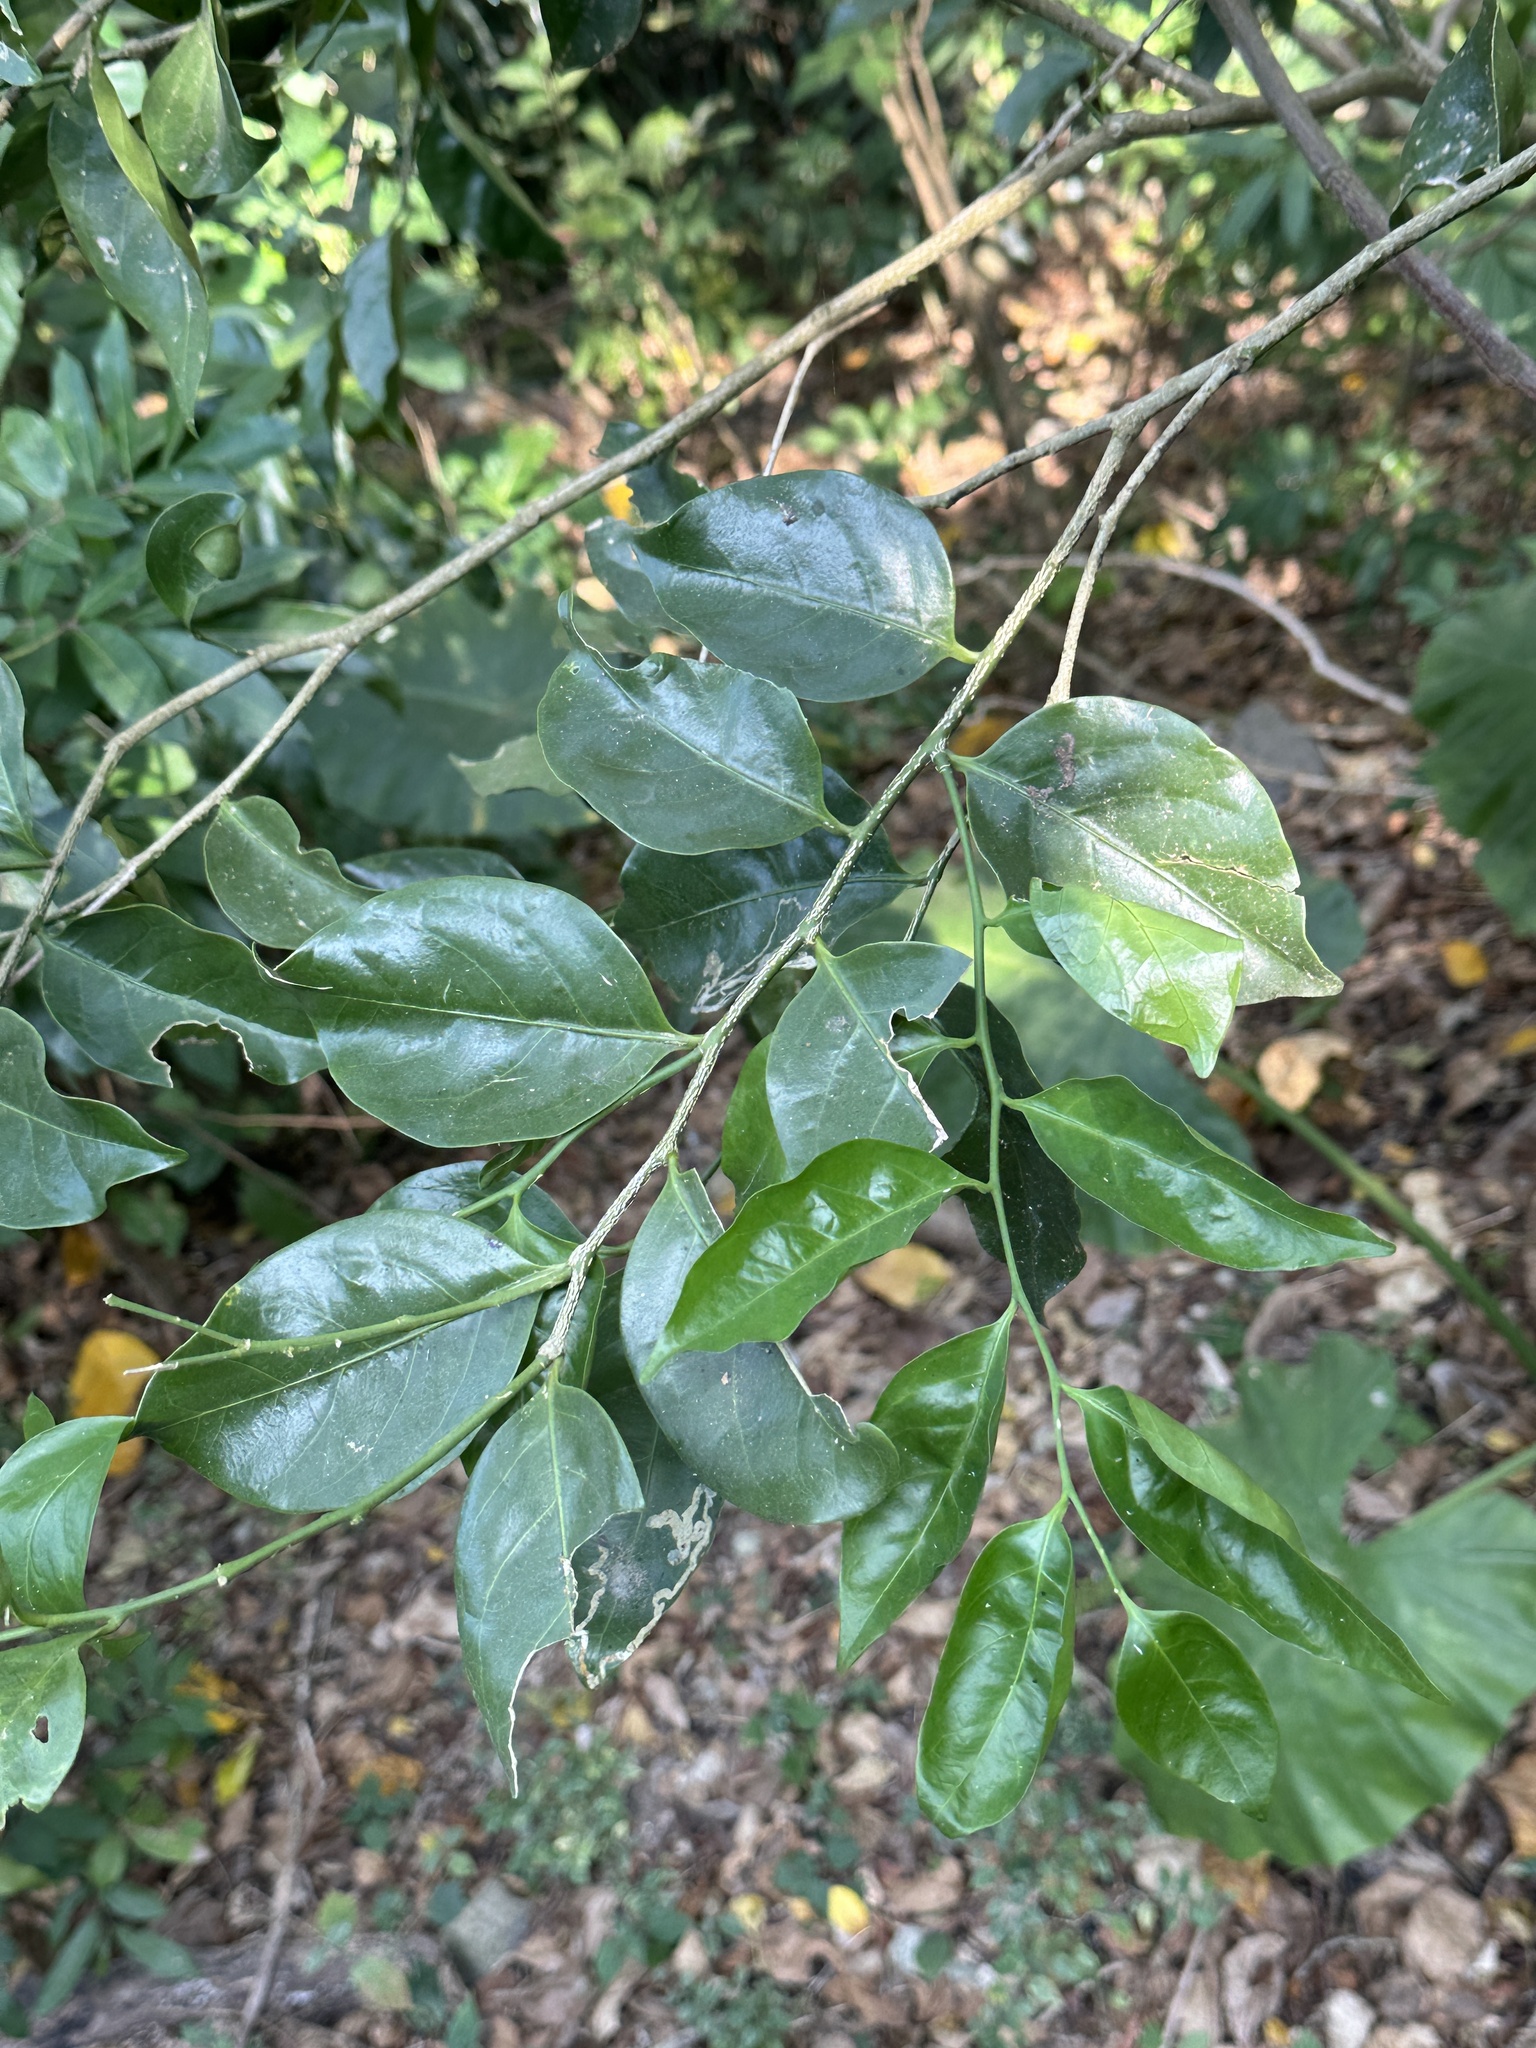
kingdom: Plantae
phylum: Tracheophyta
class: Magnoliopsida
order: Santalales
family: Opiliaceae
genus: Champereia
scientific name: Champereia manillana
